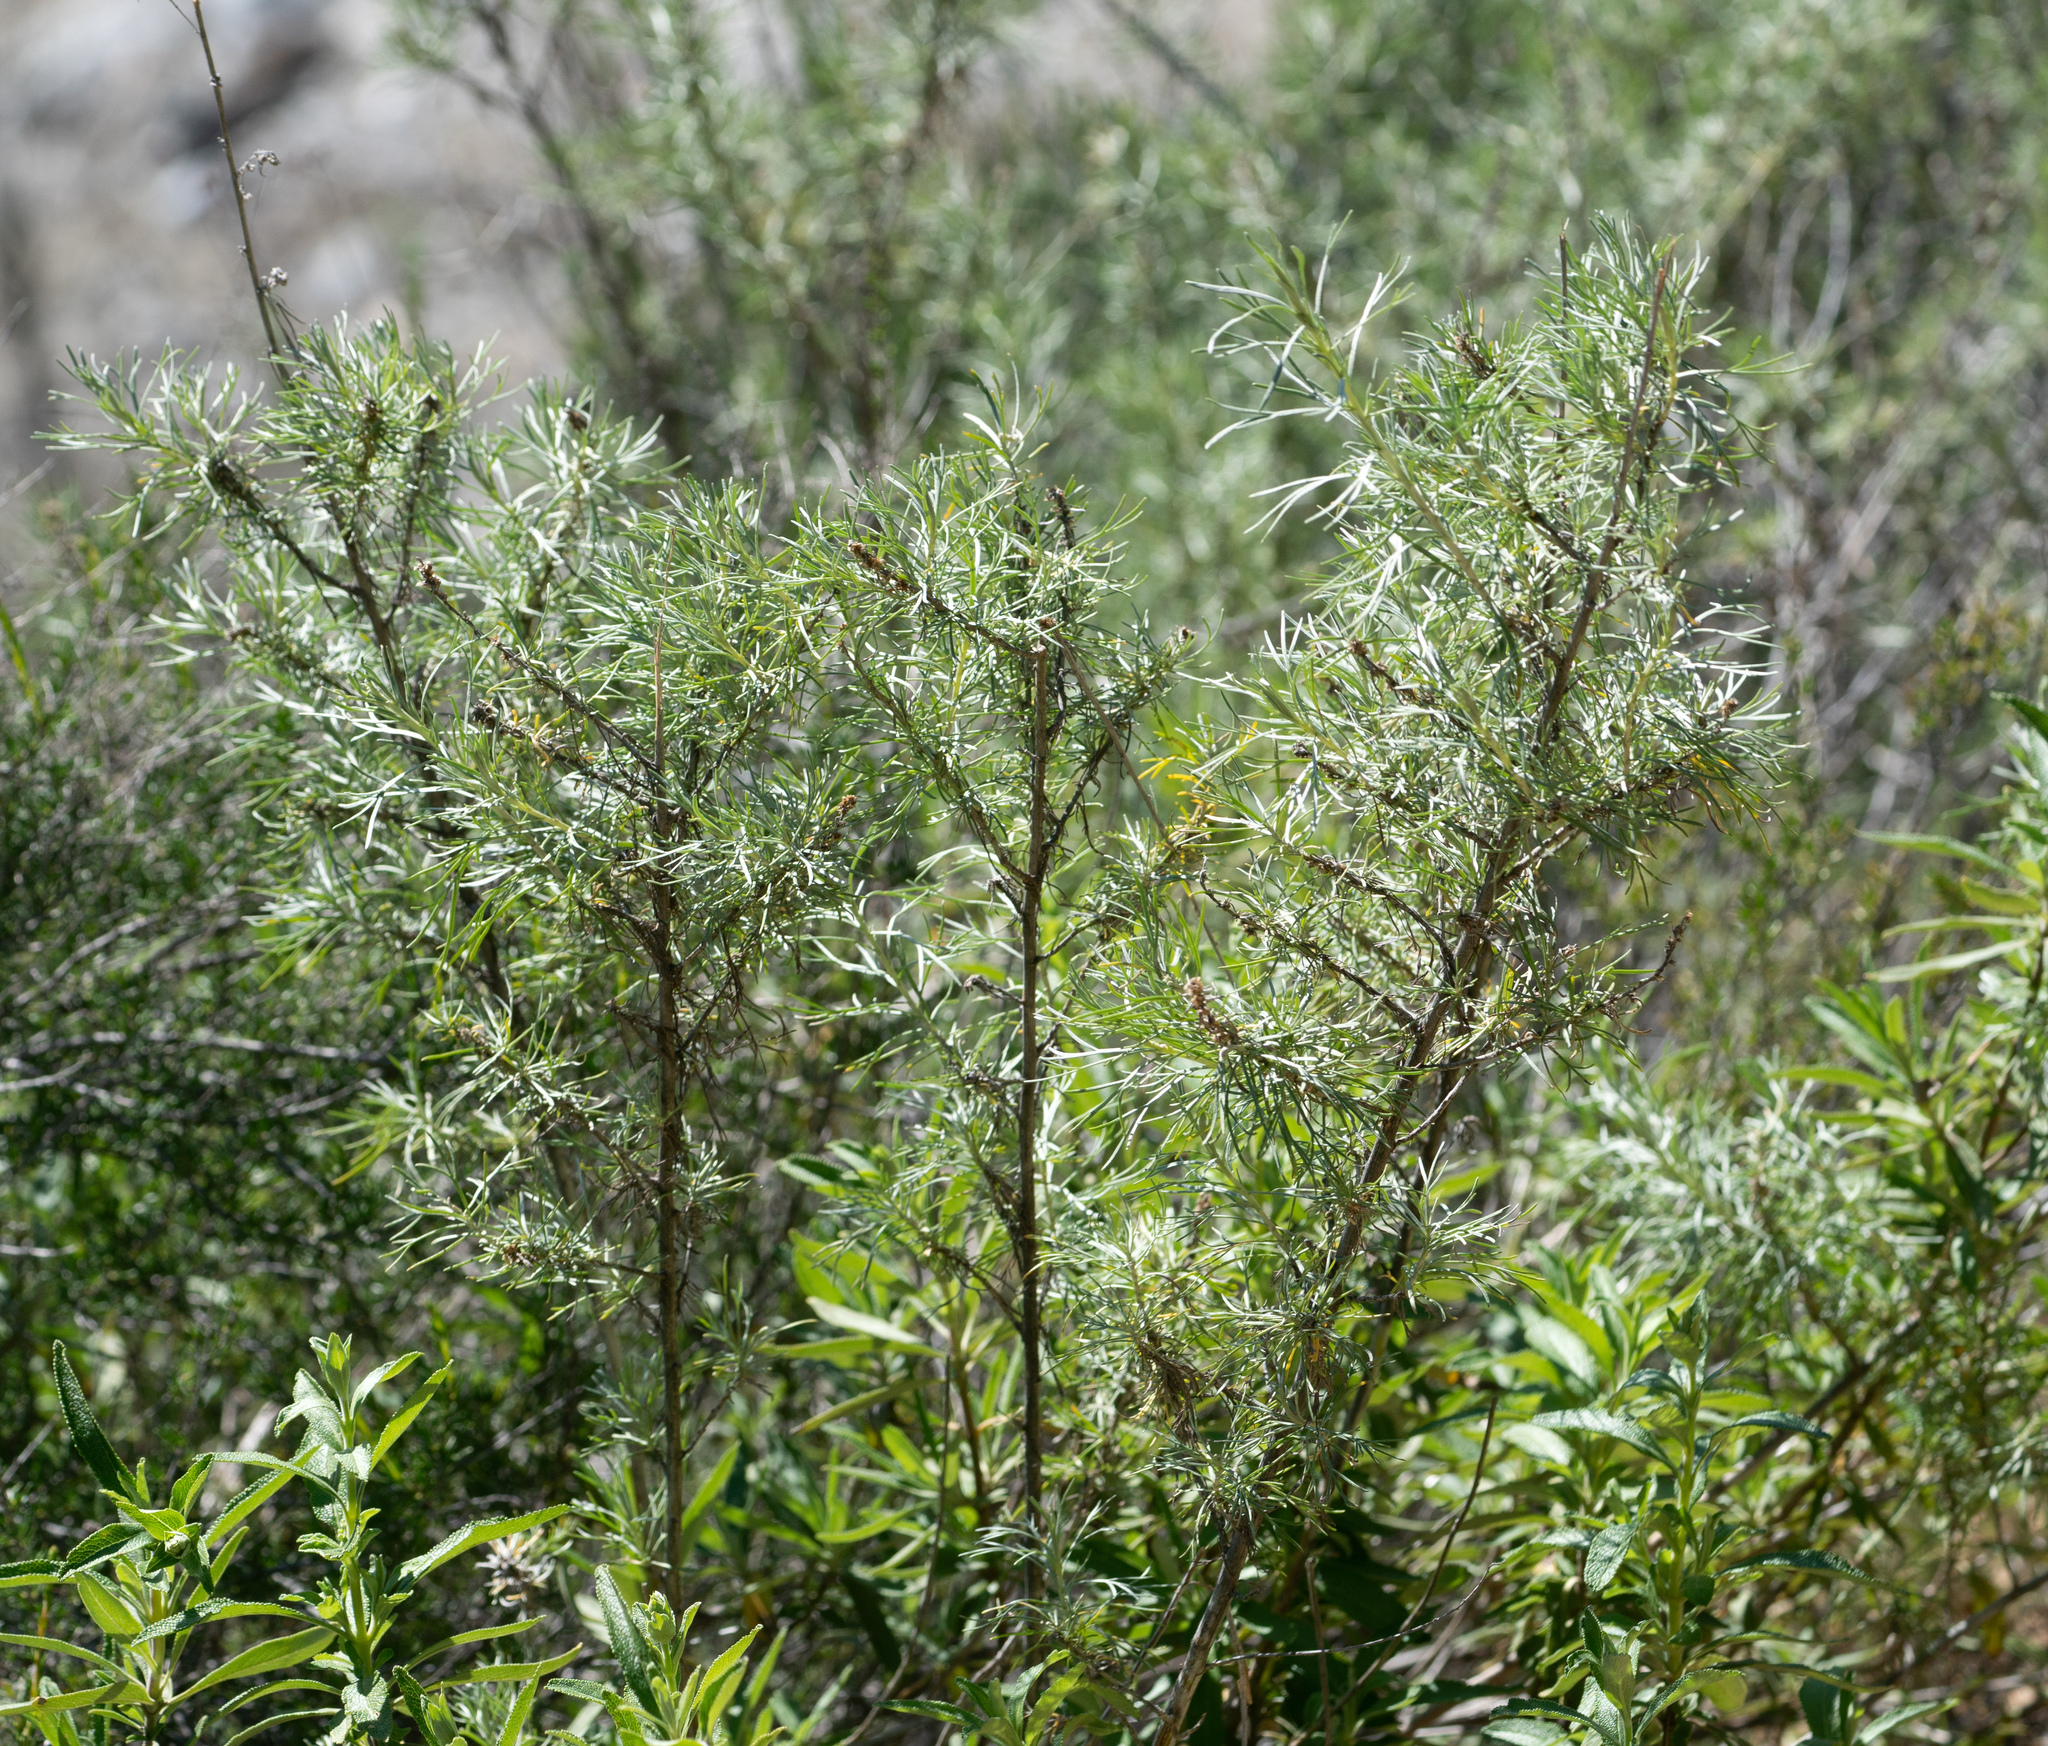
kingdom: Plantae
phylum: Tracheophyta
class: Magnoliopsida
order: Asterales
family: Asteraceae
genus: Artemisia
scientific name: Artemisia californica
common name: California sagebrush
